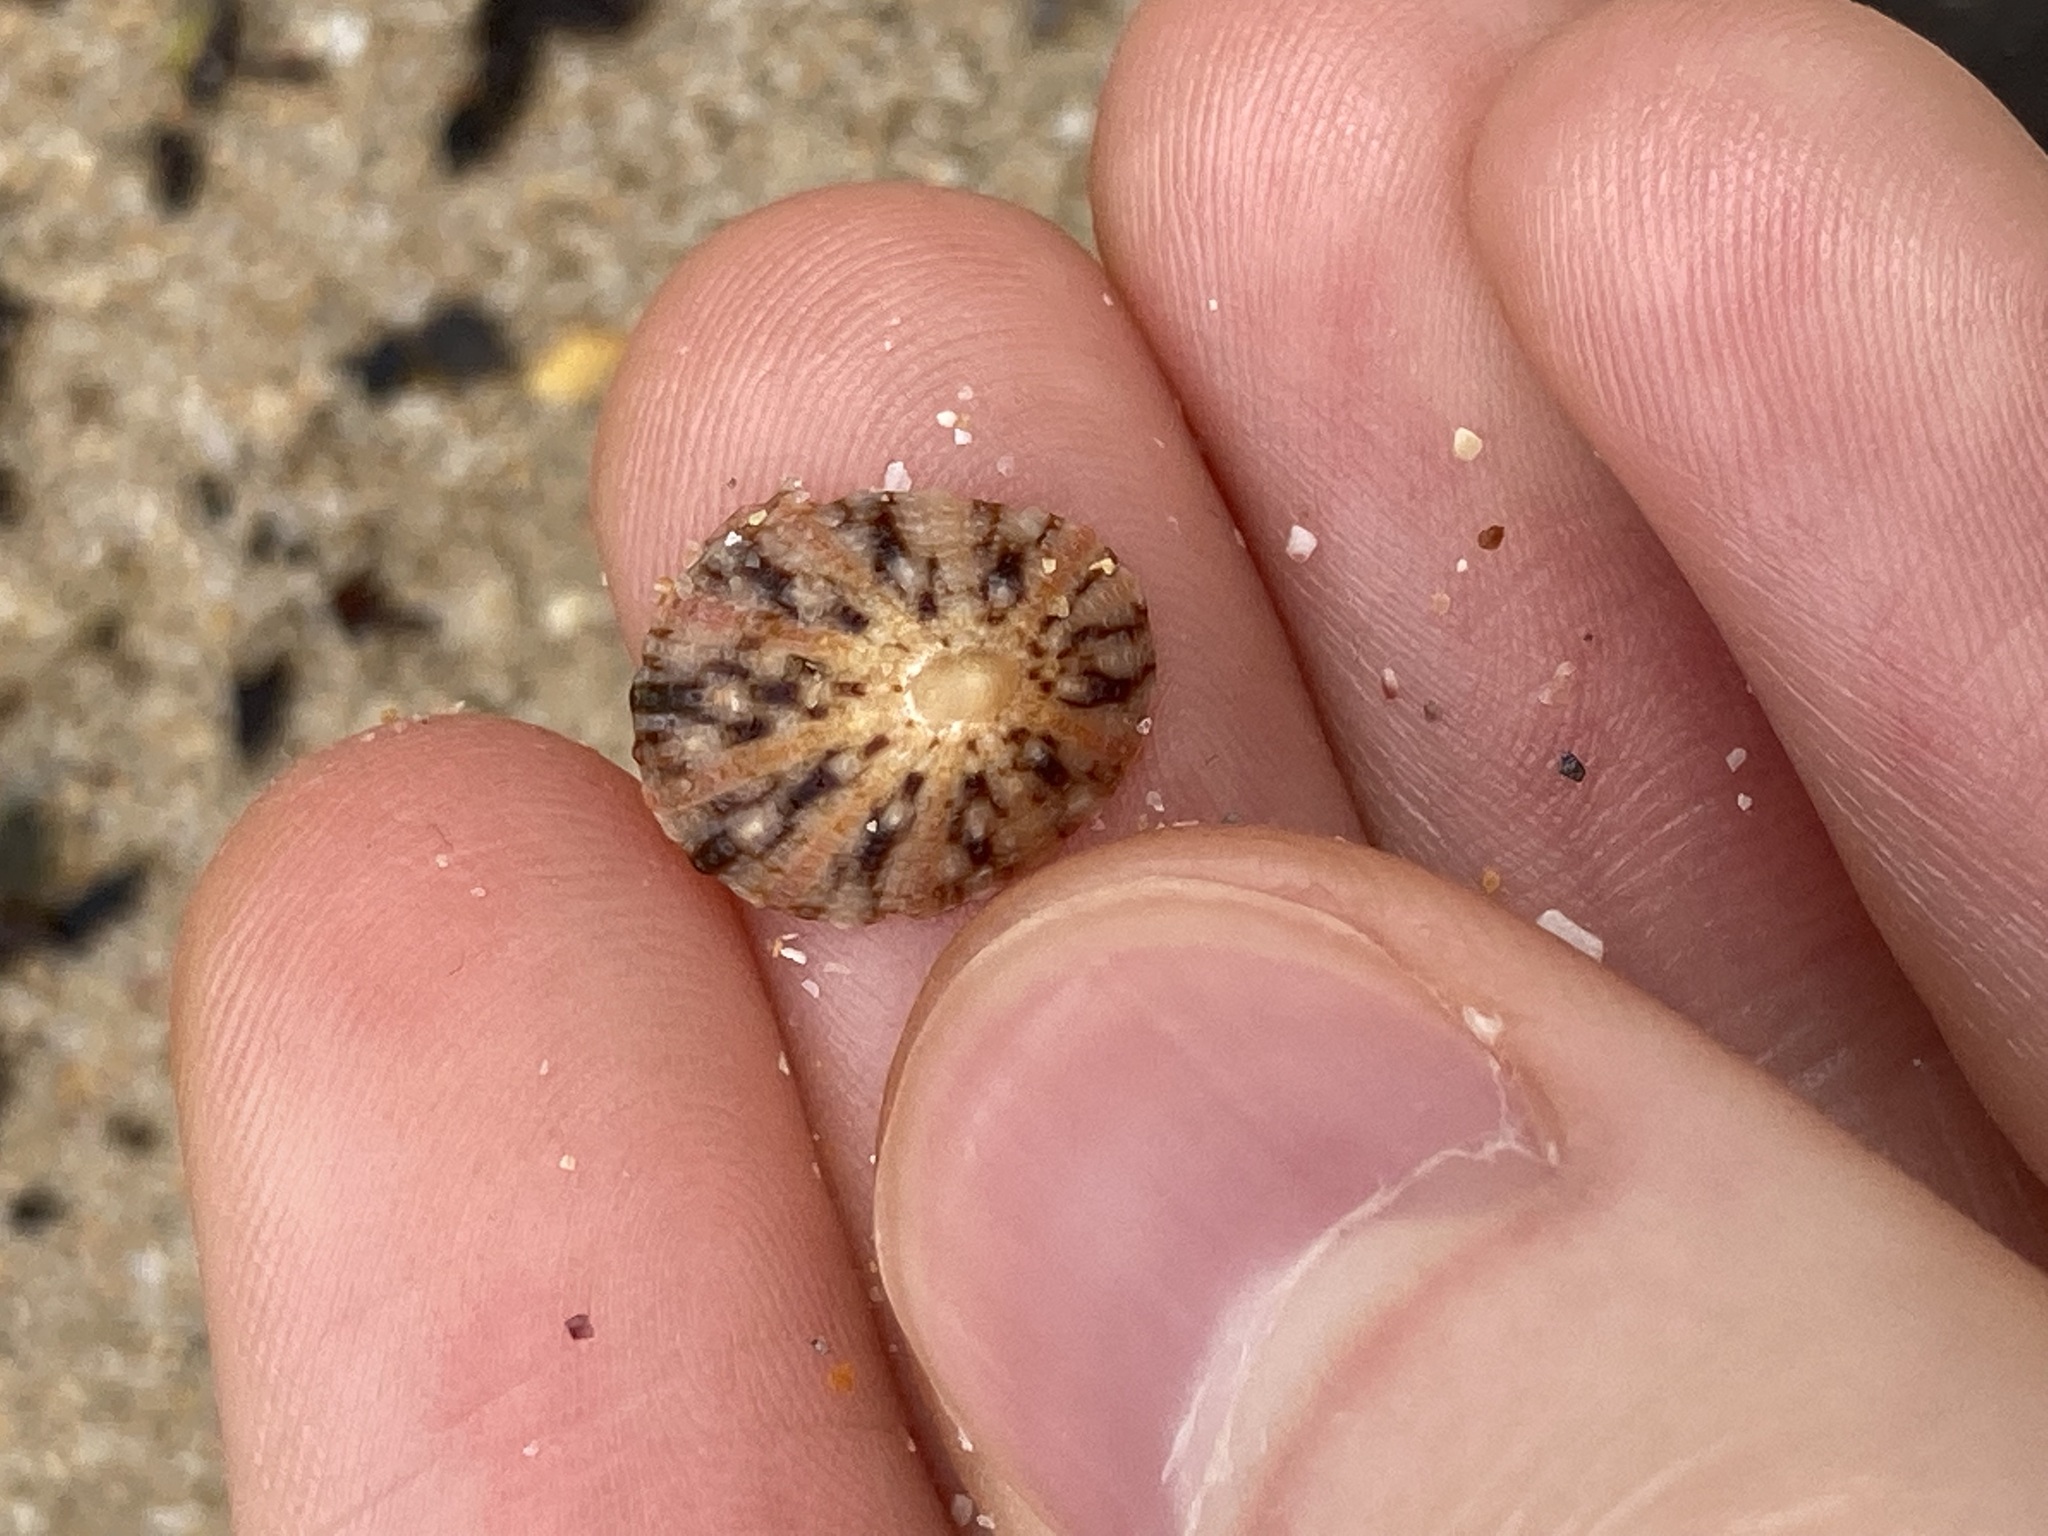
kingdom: Animalia
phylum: Mollusca
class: Gastropoda
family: Nacellidae
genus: Cellana
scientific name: Cellana tramoserica
